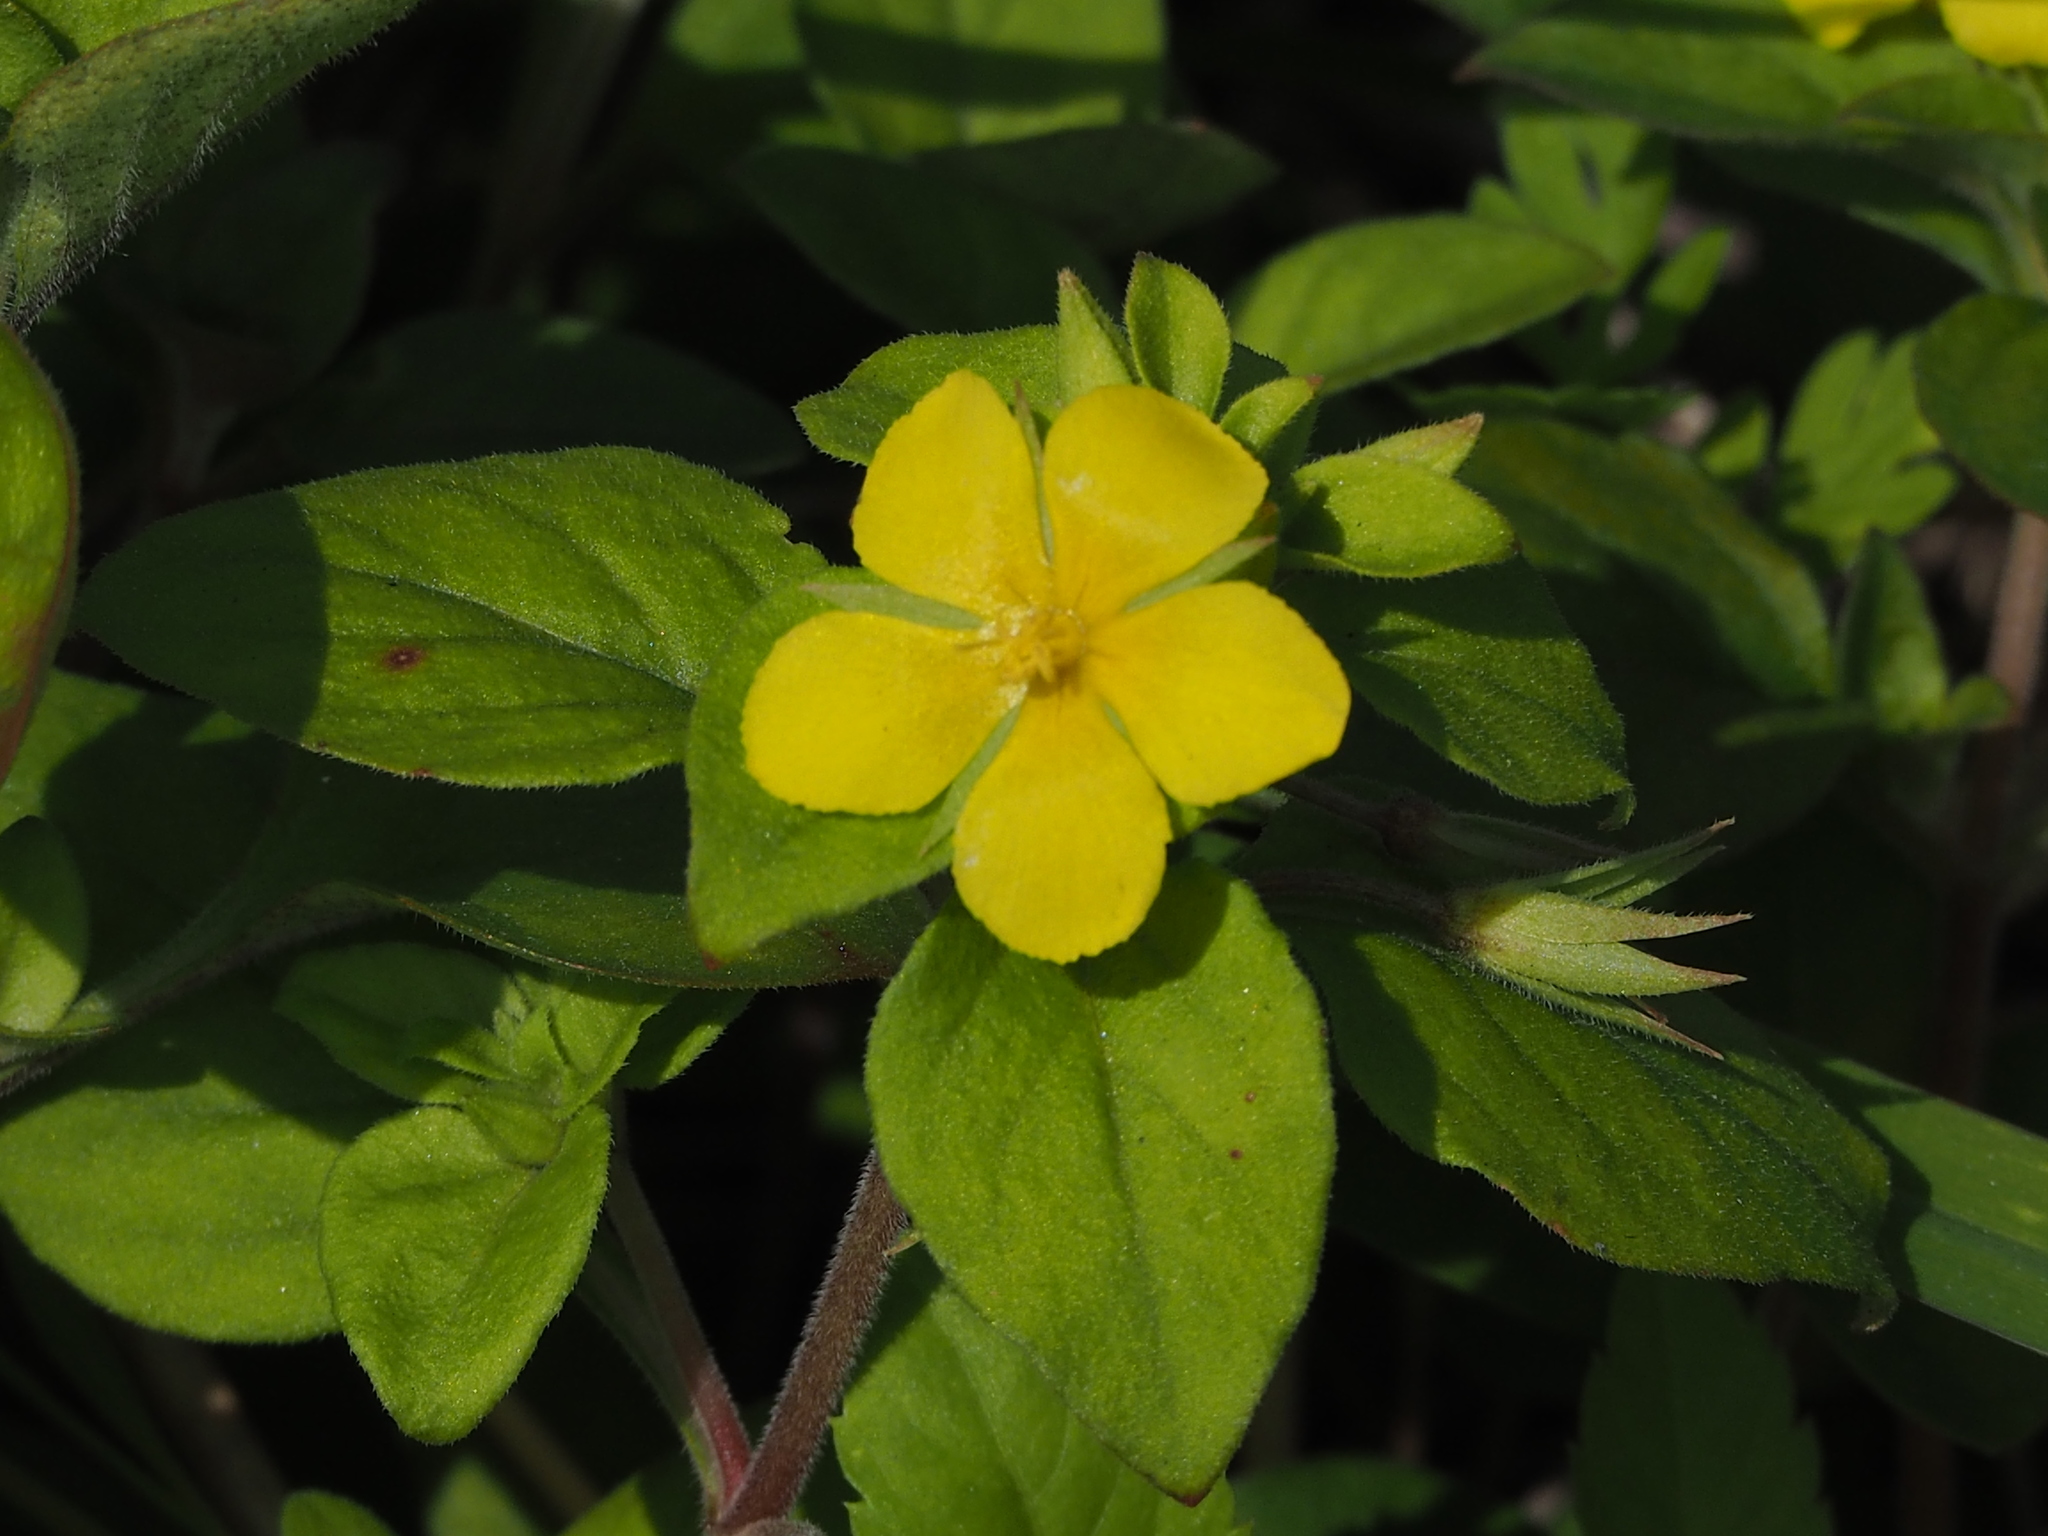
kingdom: Plantae
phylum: Tracheophyta
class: Magnoliopsida
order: Ericales
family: Primulaceae
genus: Lysimachia
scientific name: Lysimachia remota
